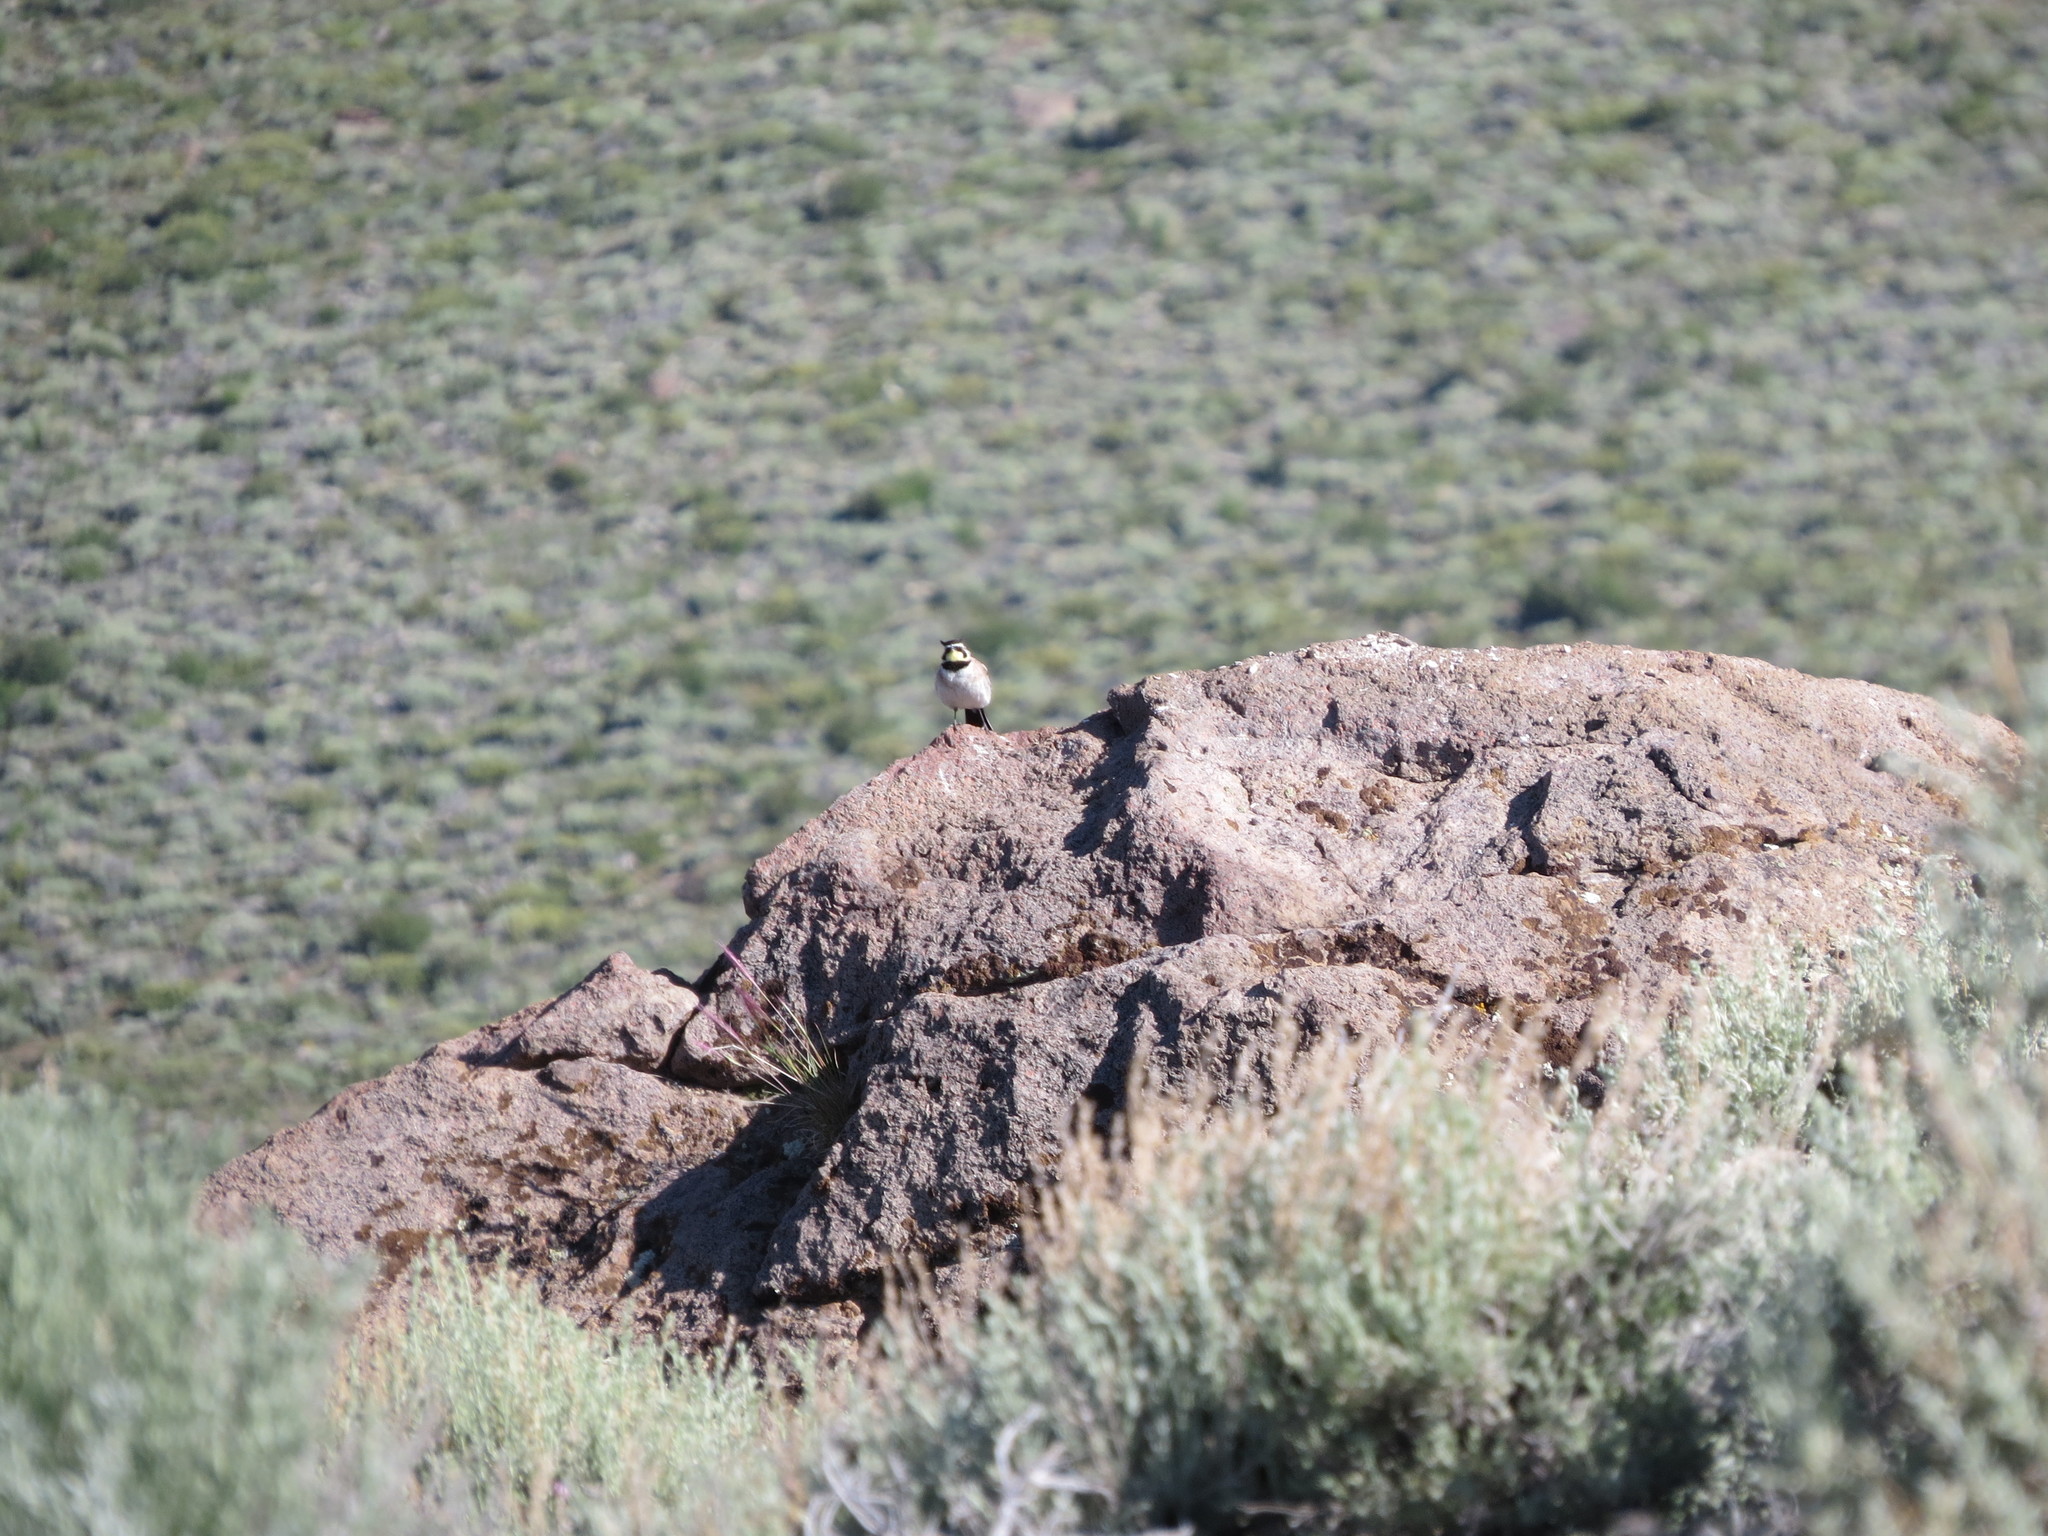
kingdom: Animalia
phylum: Chordata
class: Aves
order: Passeriformes
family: Alaudidae
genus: Eremophila
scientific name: Eremophila alpestris
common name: Horned lark
